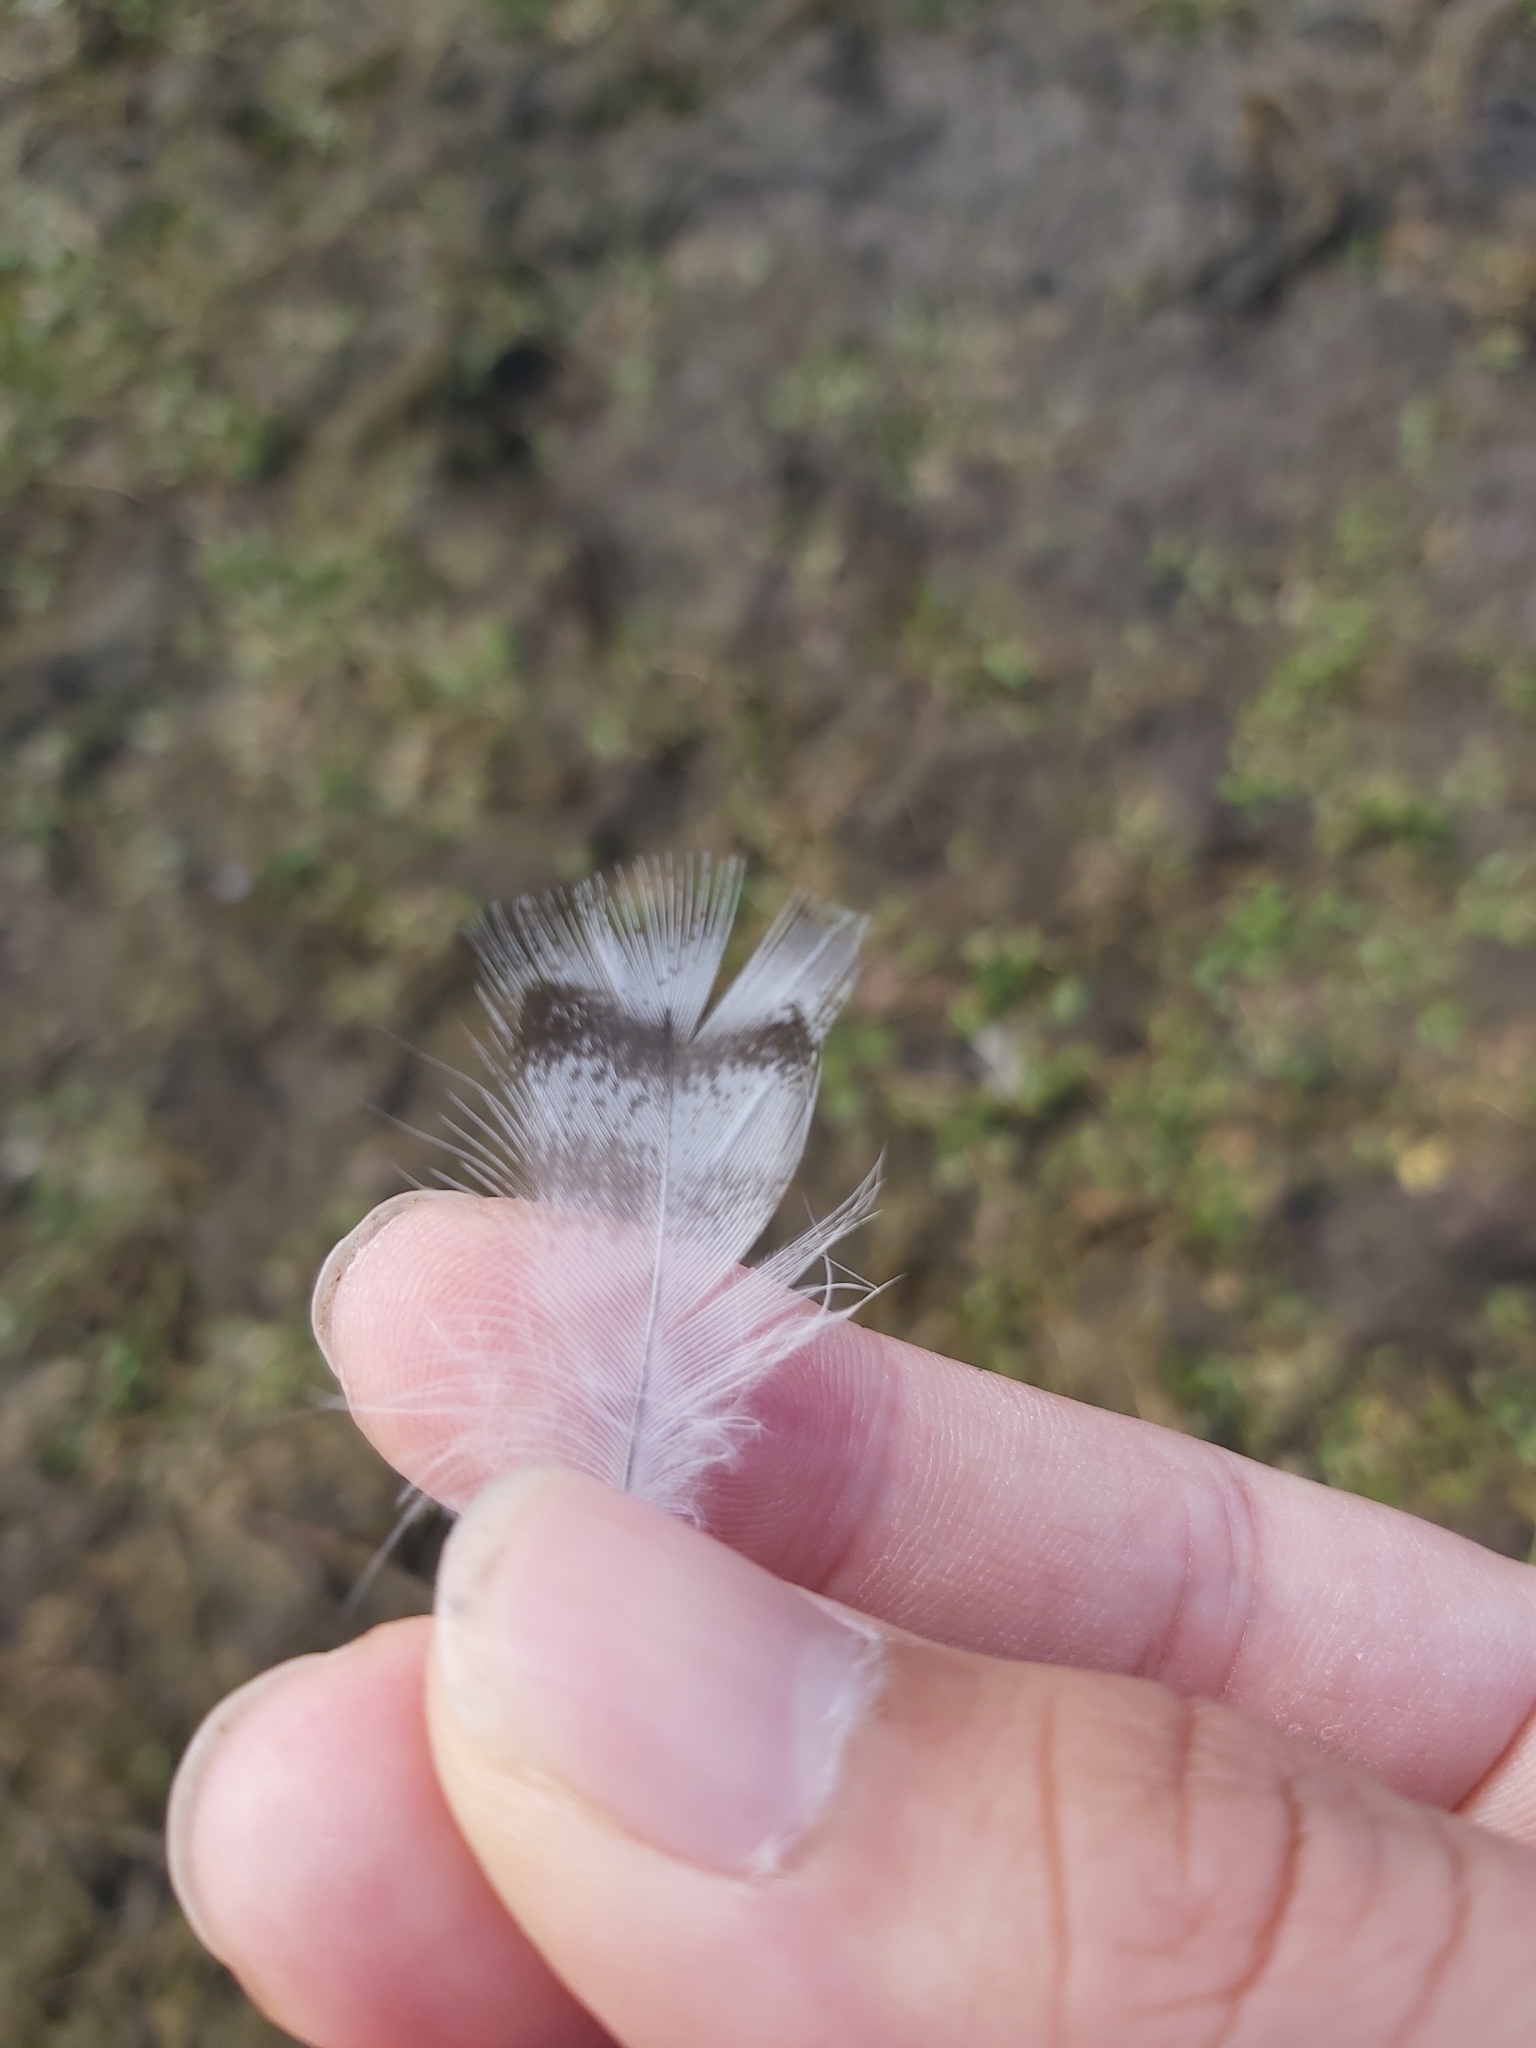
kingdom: Animalia
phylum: Chordata
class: Aves
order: Anseriformes
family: Anatidae
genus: Chenonetta
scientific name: Chenonetta jubata
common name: Maned duck
